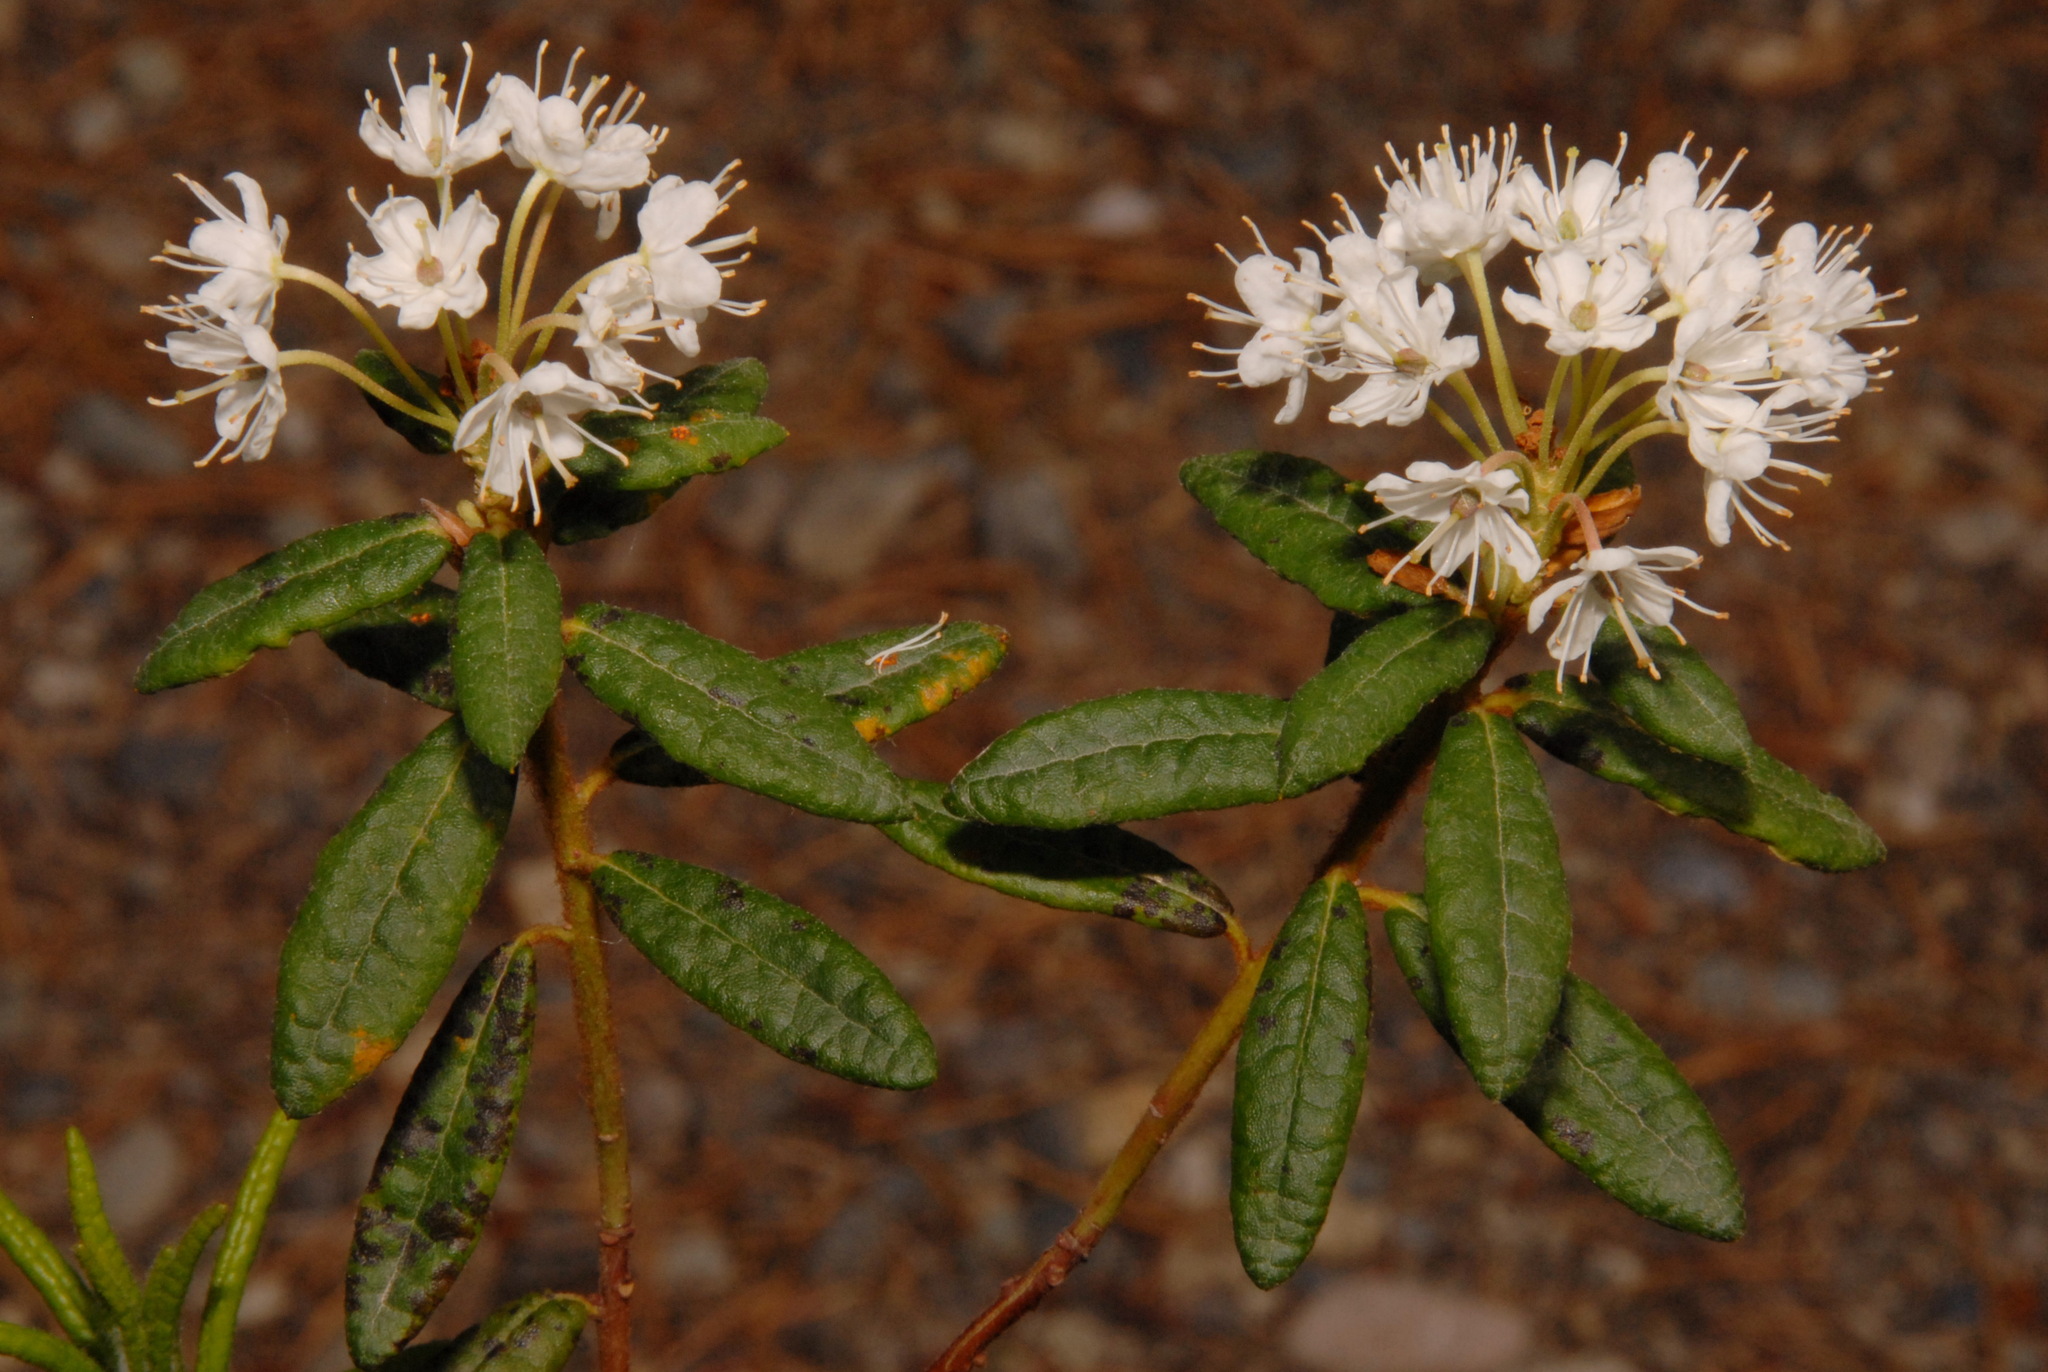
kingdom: Plantae
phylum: Tracheophyta
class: Magnoliopsida
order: Ericales
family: Ericaceae
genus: Rhododendron
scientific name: Rhododendron groenlandicum
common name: Bog labrador tea
